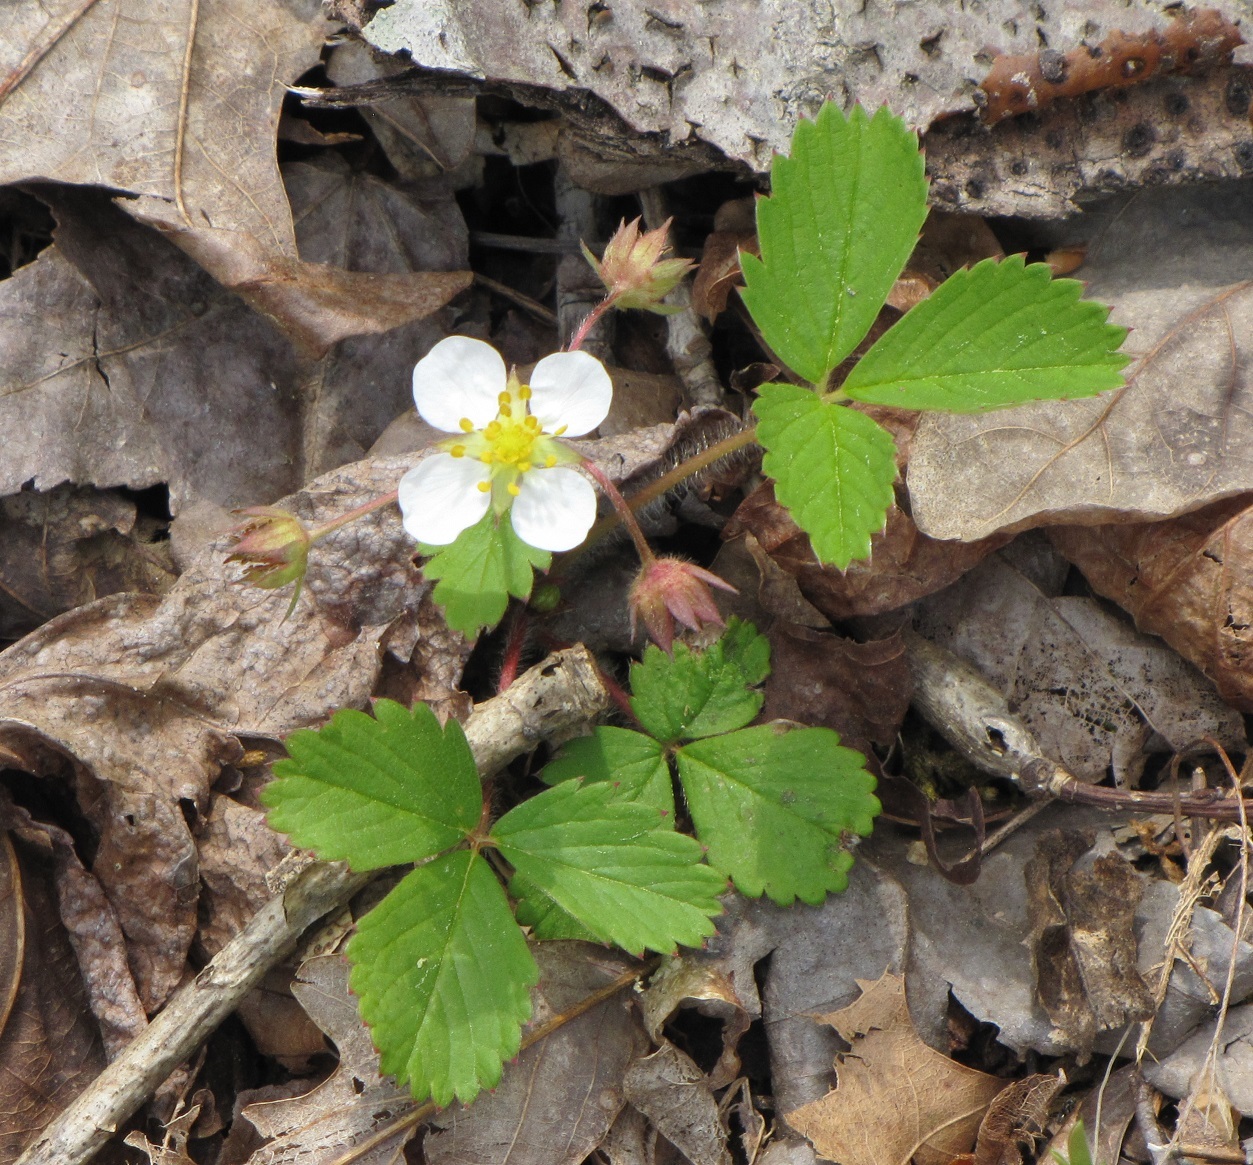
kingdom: Plantae
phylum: Tracheophyta
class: Magnoliopsida
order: Rosales
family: Rosaceae
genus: Fragaria
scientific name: Fragaria virginiana
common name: Thickleaved wild strawberry
